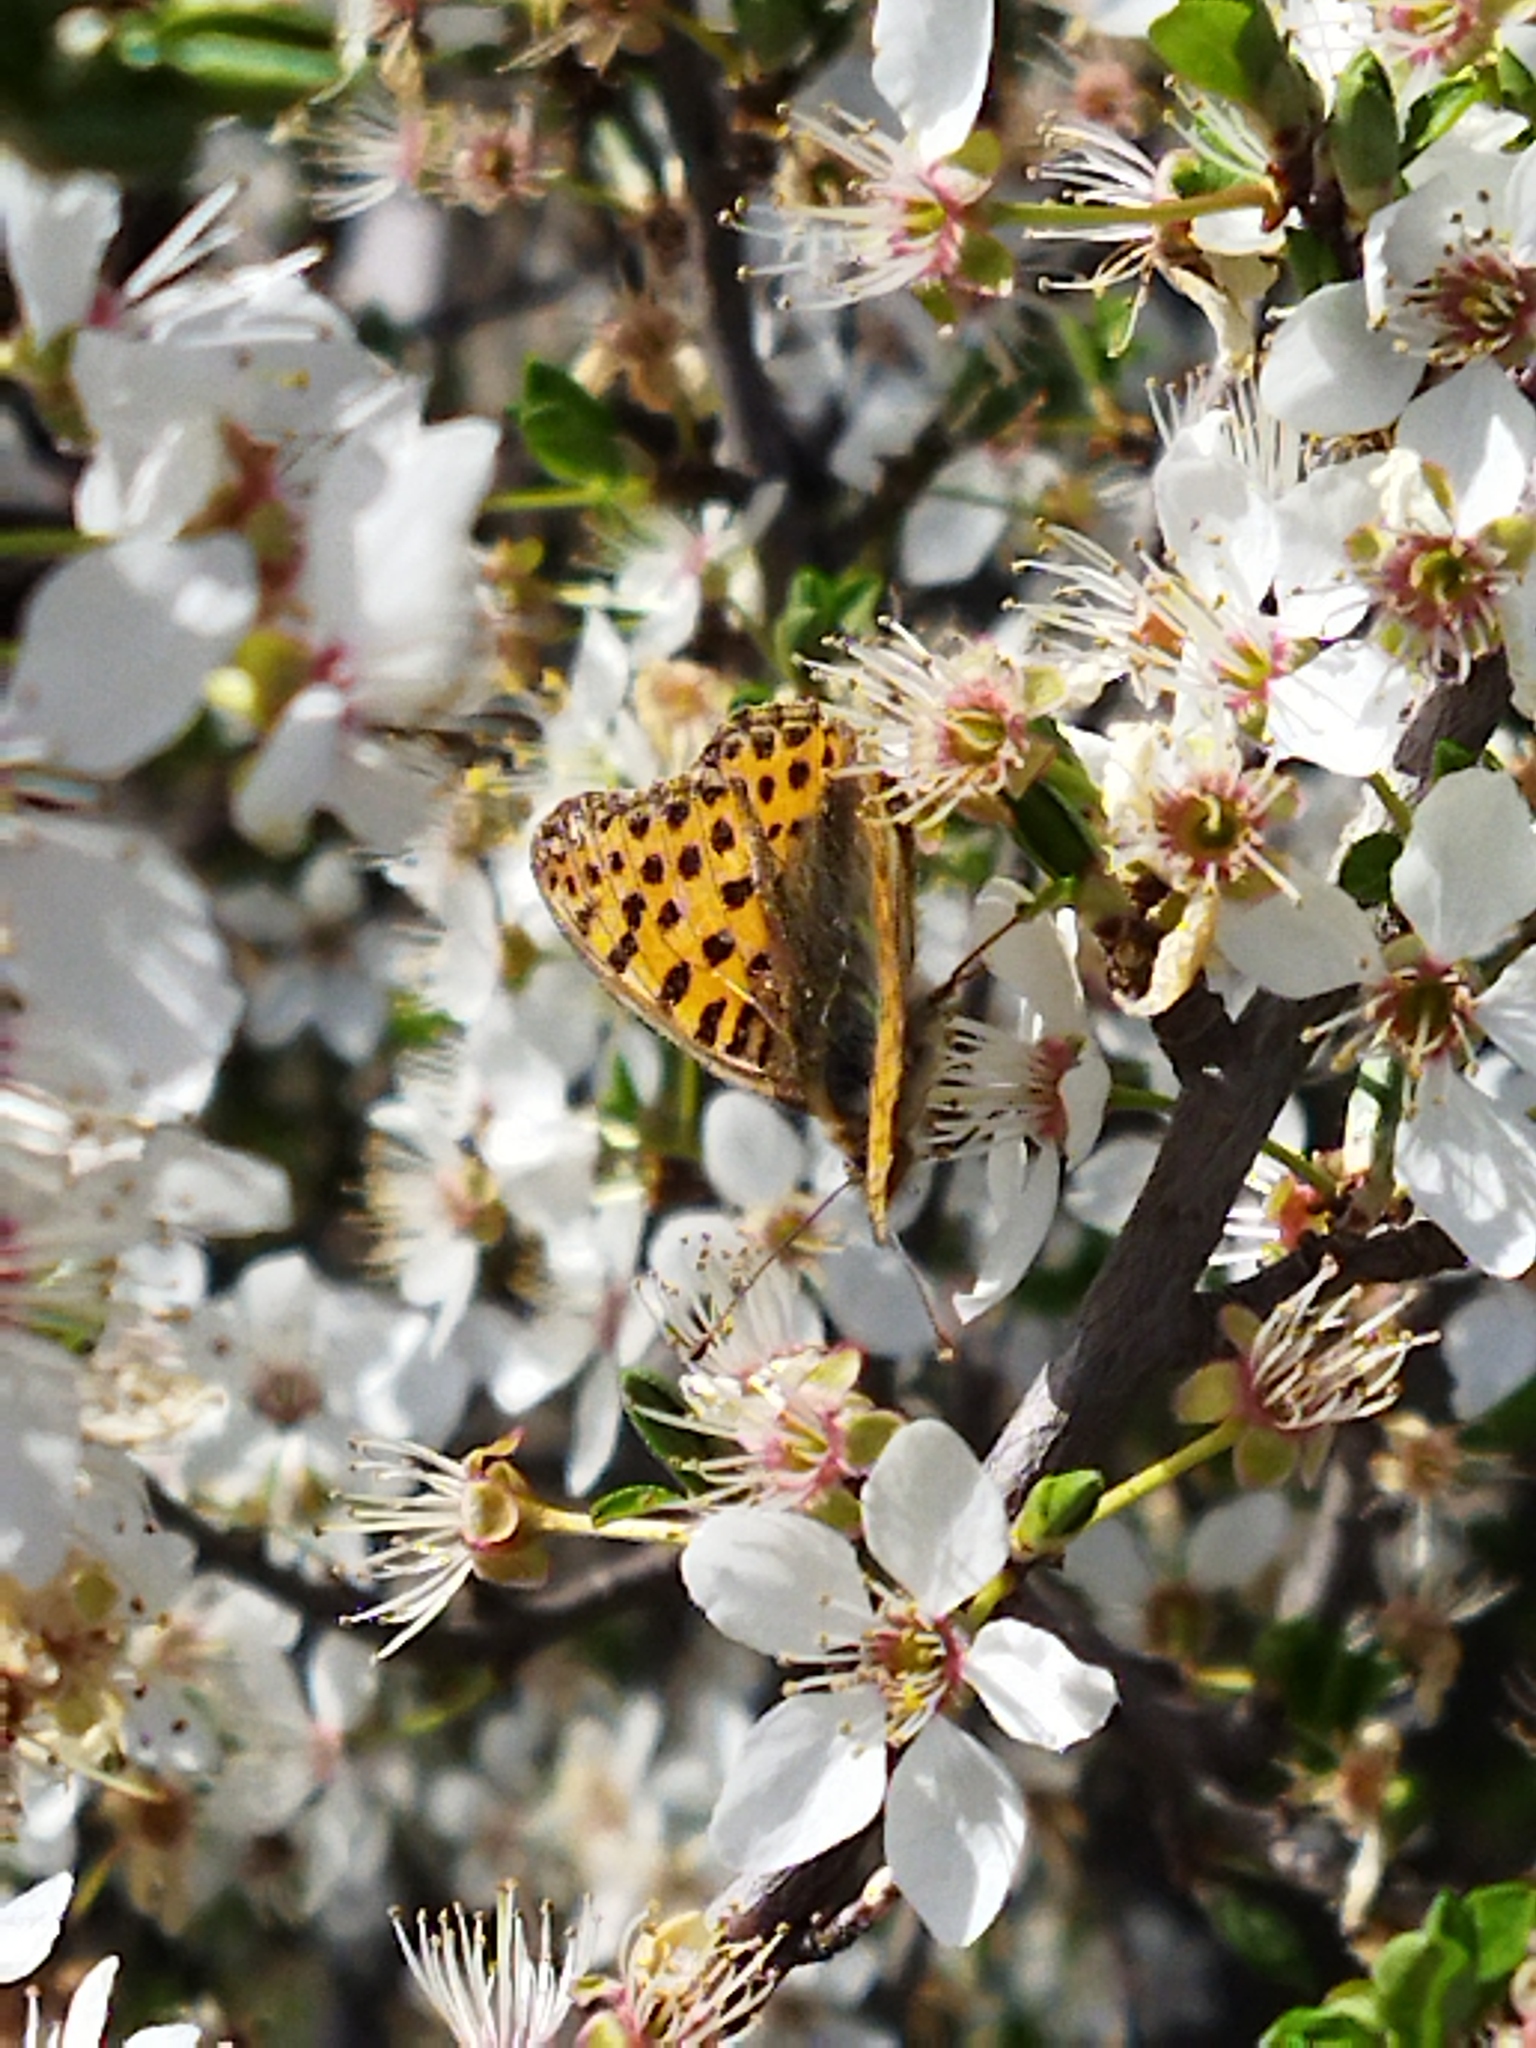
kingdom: Animalia
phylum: Arthropoda
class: Insecta
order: Lepidoptera
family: Nymphalidae
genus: Issoria
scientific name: Issoria lathonia
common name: Queen of spain fritillary
